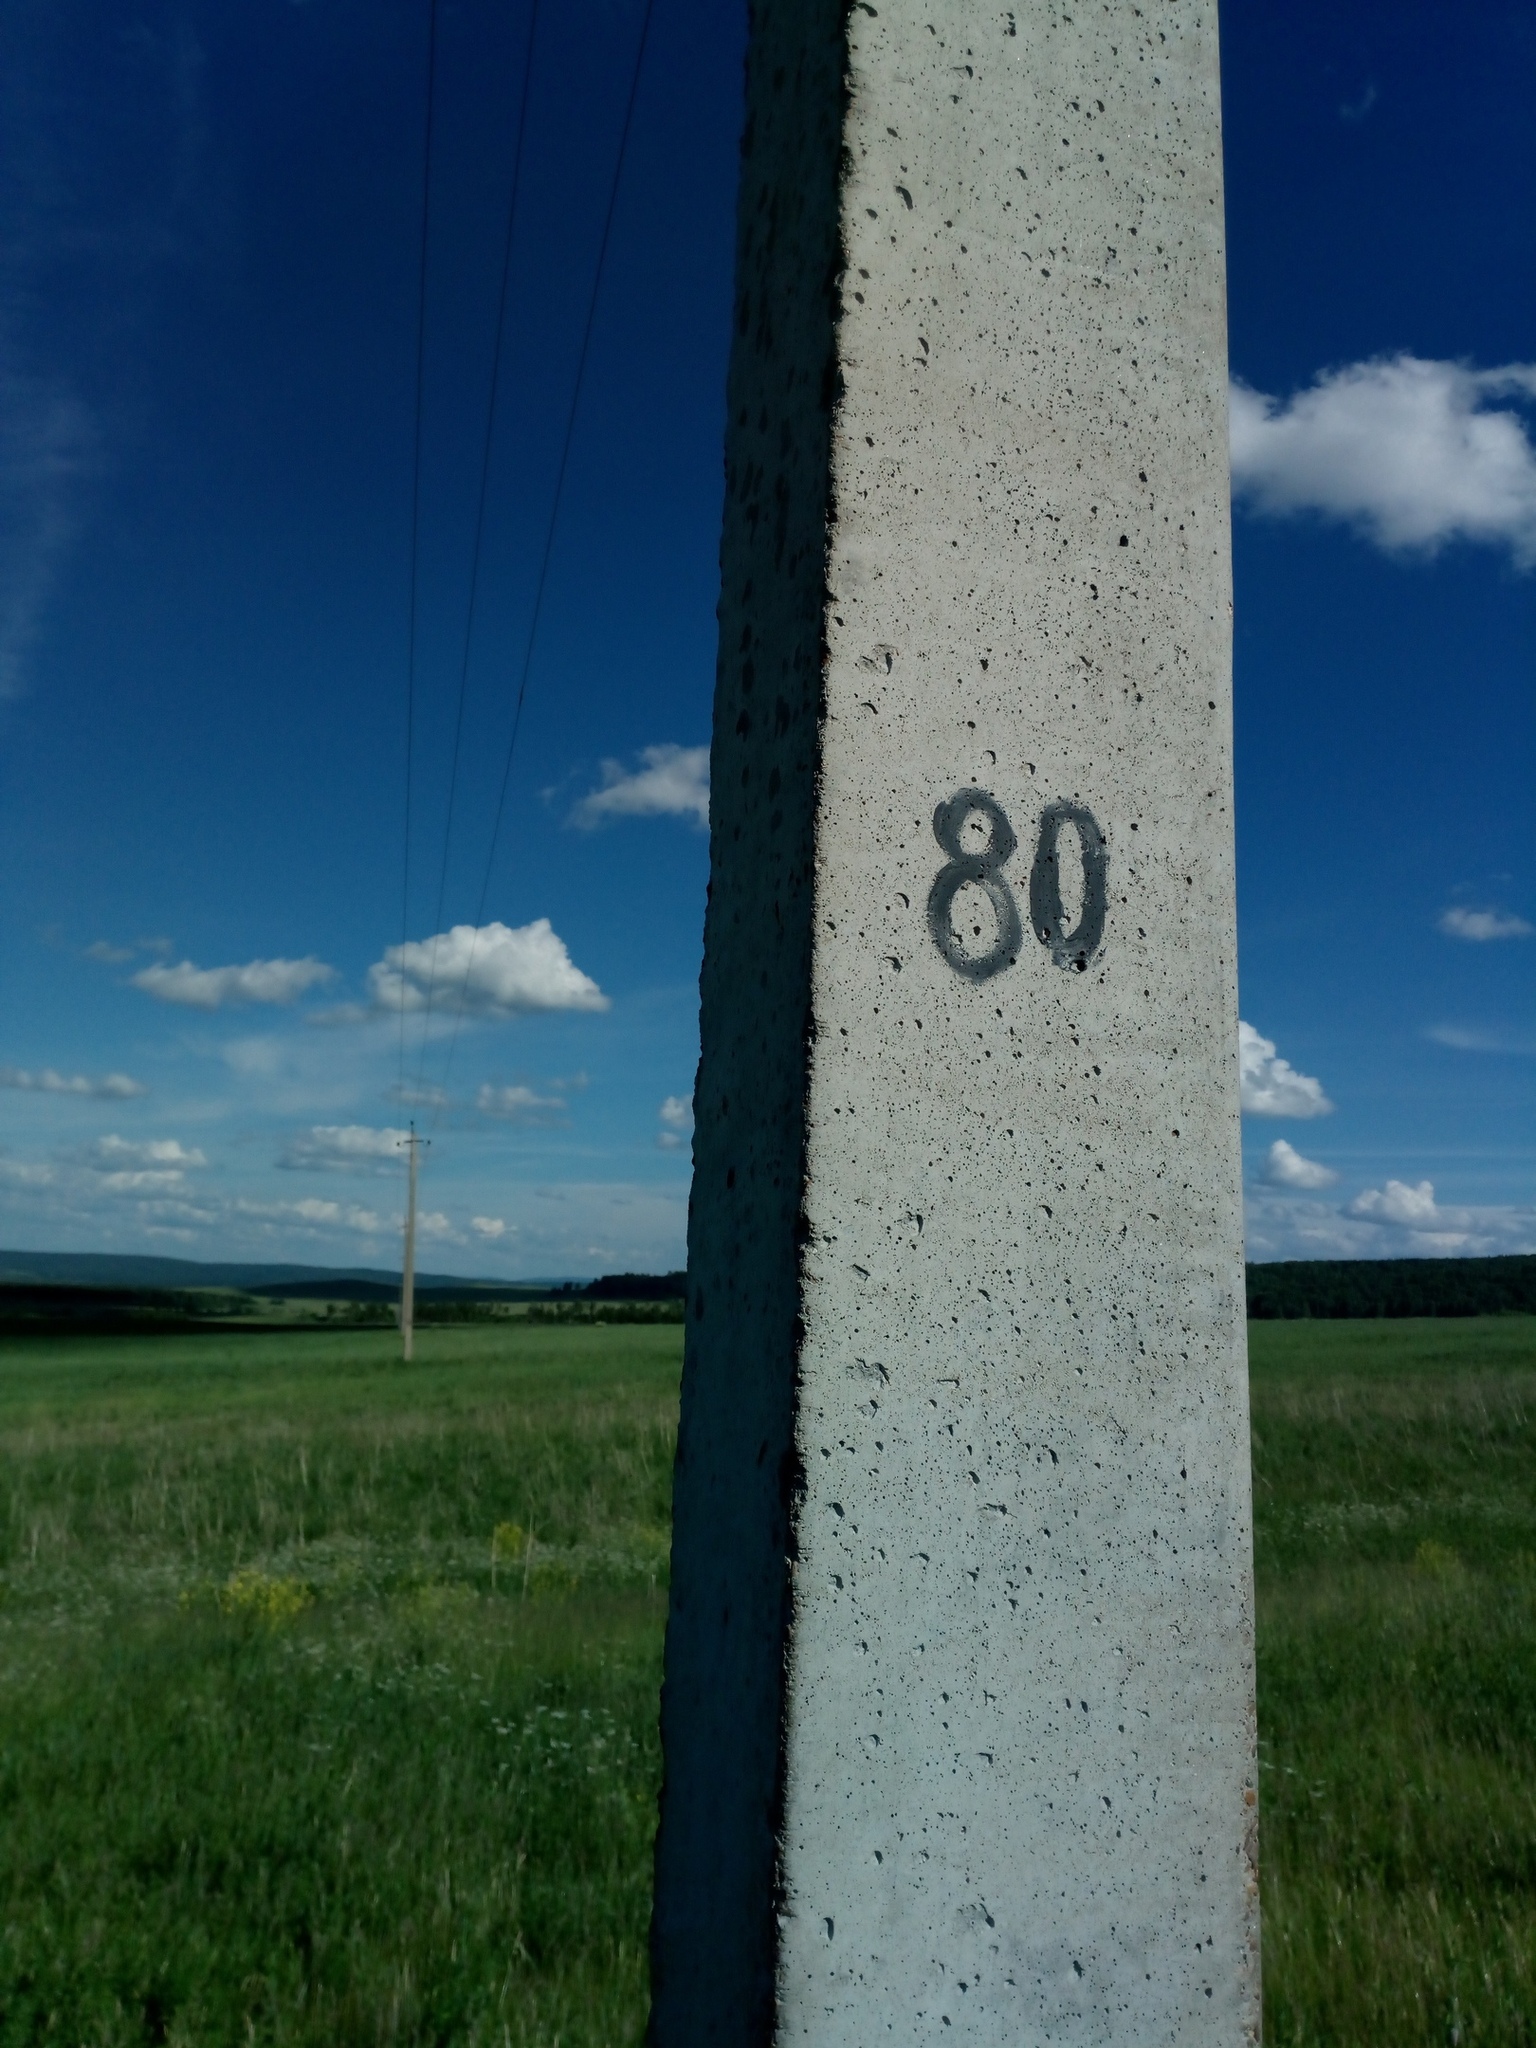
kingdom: Animalia
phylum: Chordata
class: Aves
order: Passeriformes
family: Corvidae
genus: Corvus
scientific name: Corvus cornix
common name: Hooded crow
